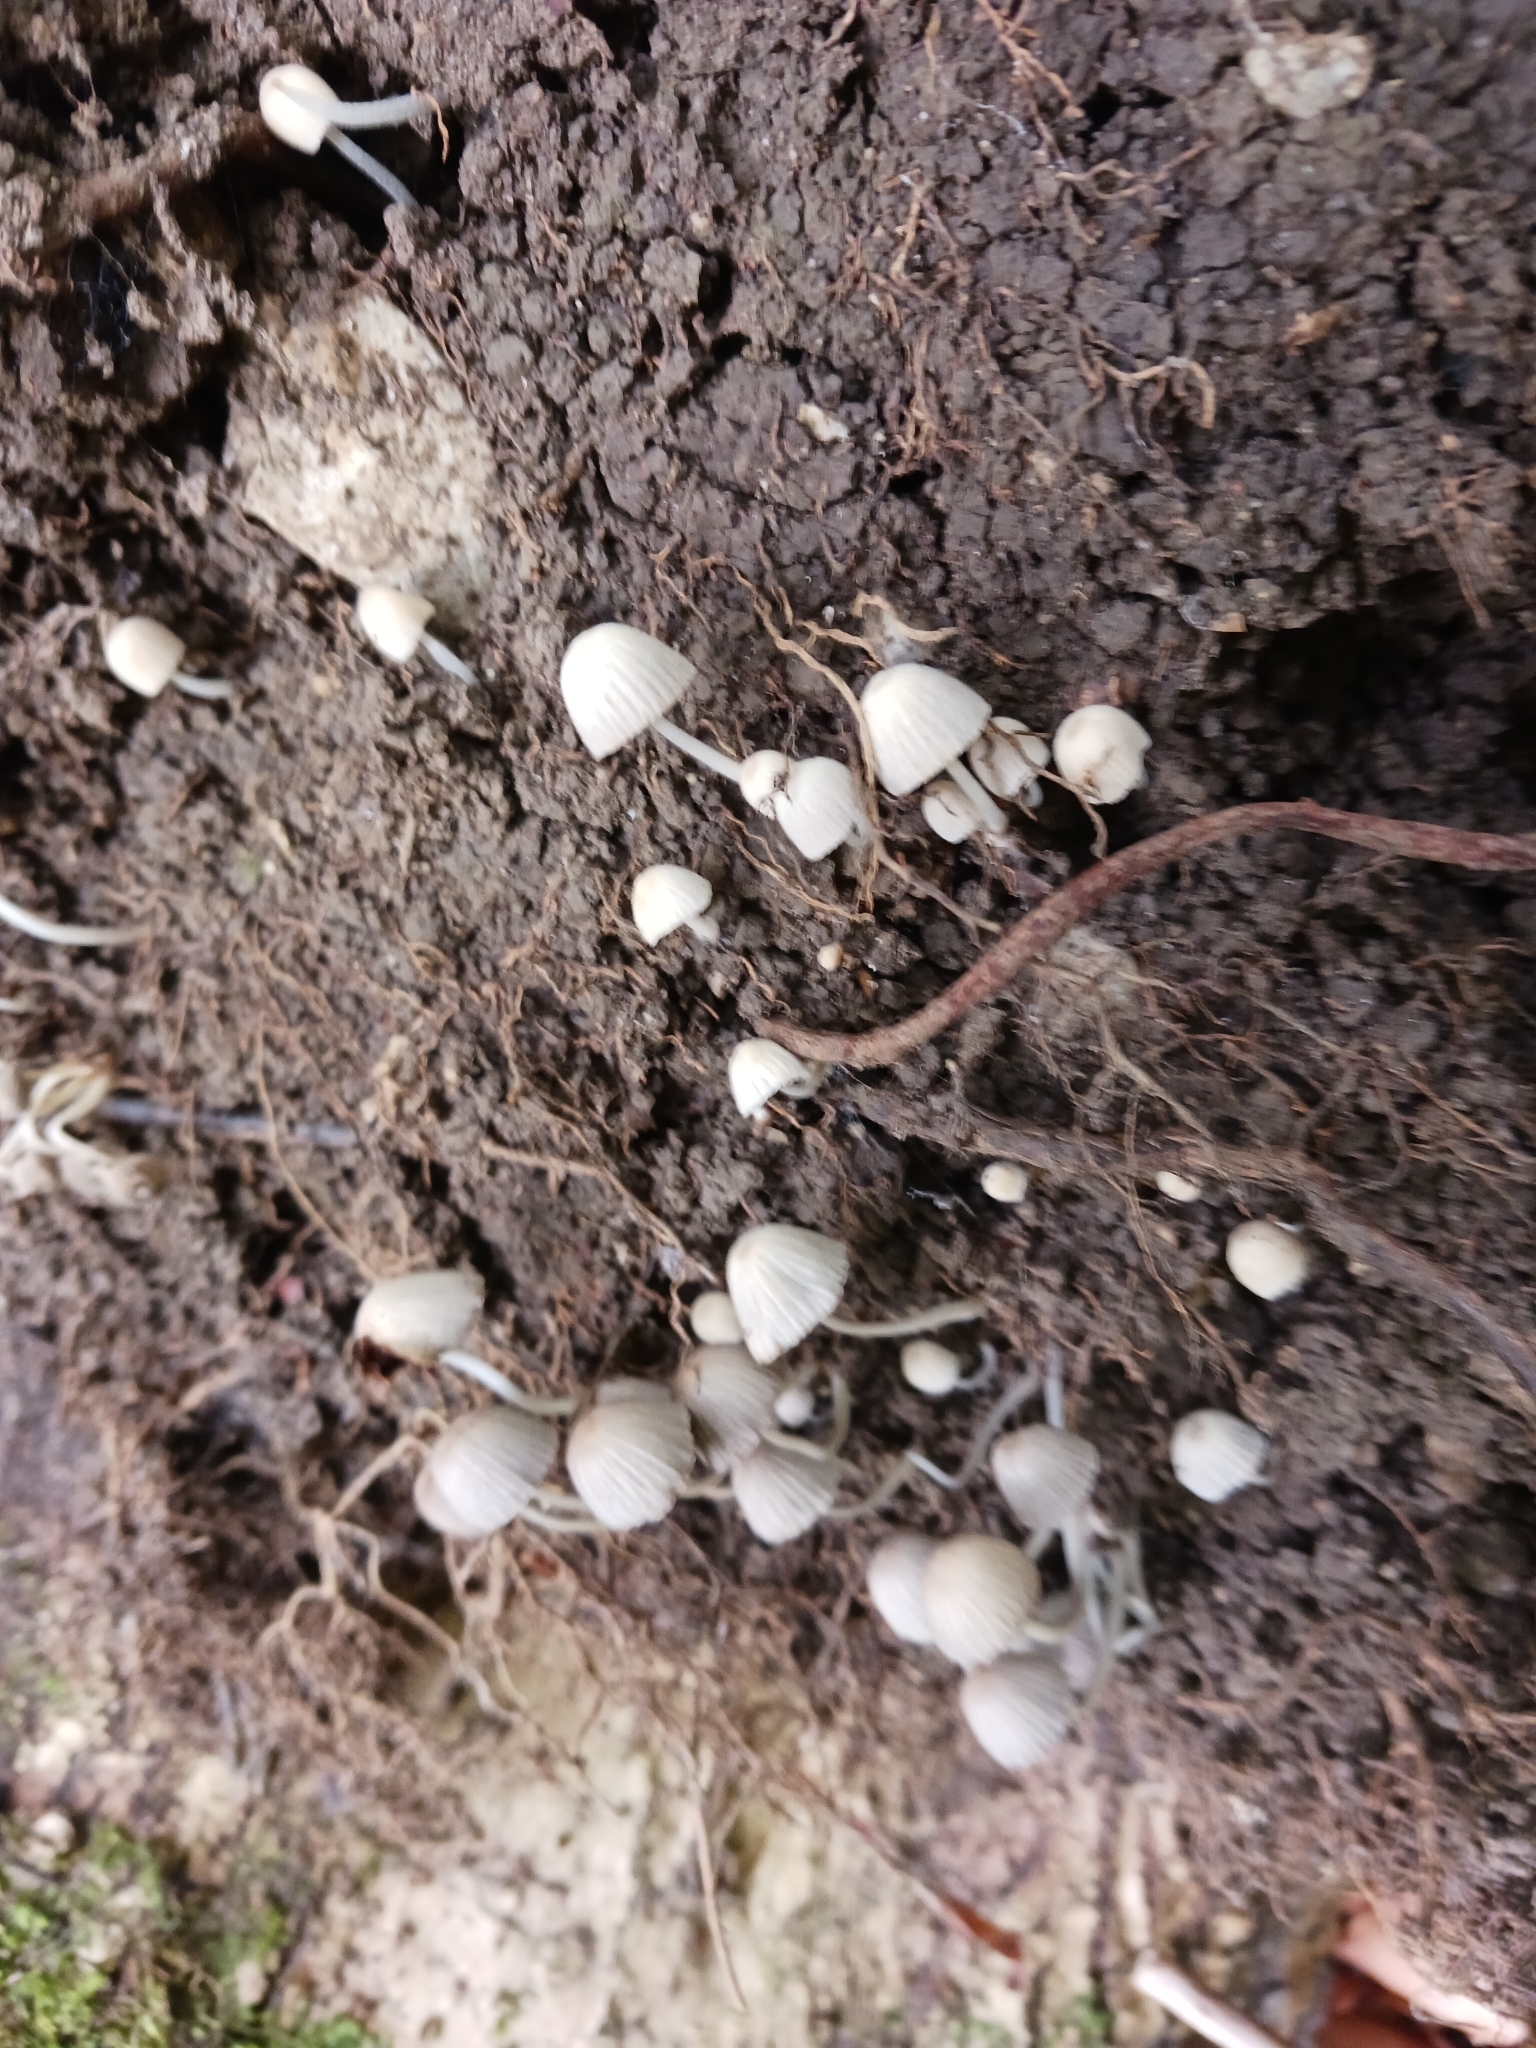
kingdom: Fungi
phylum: Basidiomycota
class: Agaricomycetes
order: Agaricales
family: Psathyrellaceae
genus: Coprinellus
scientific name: Coprinellus disseminatus
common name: Fairies' bonnets
